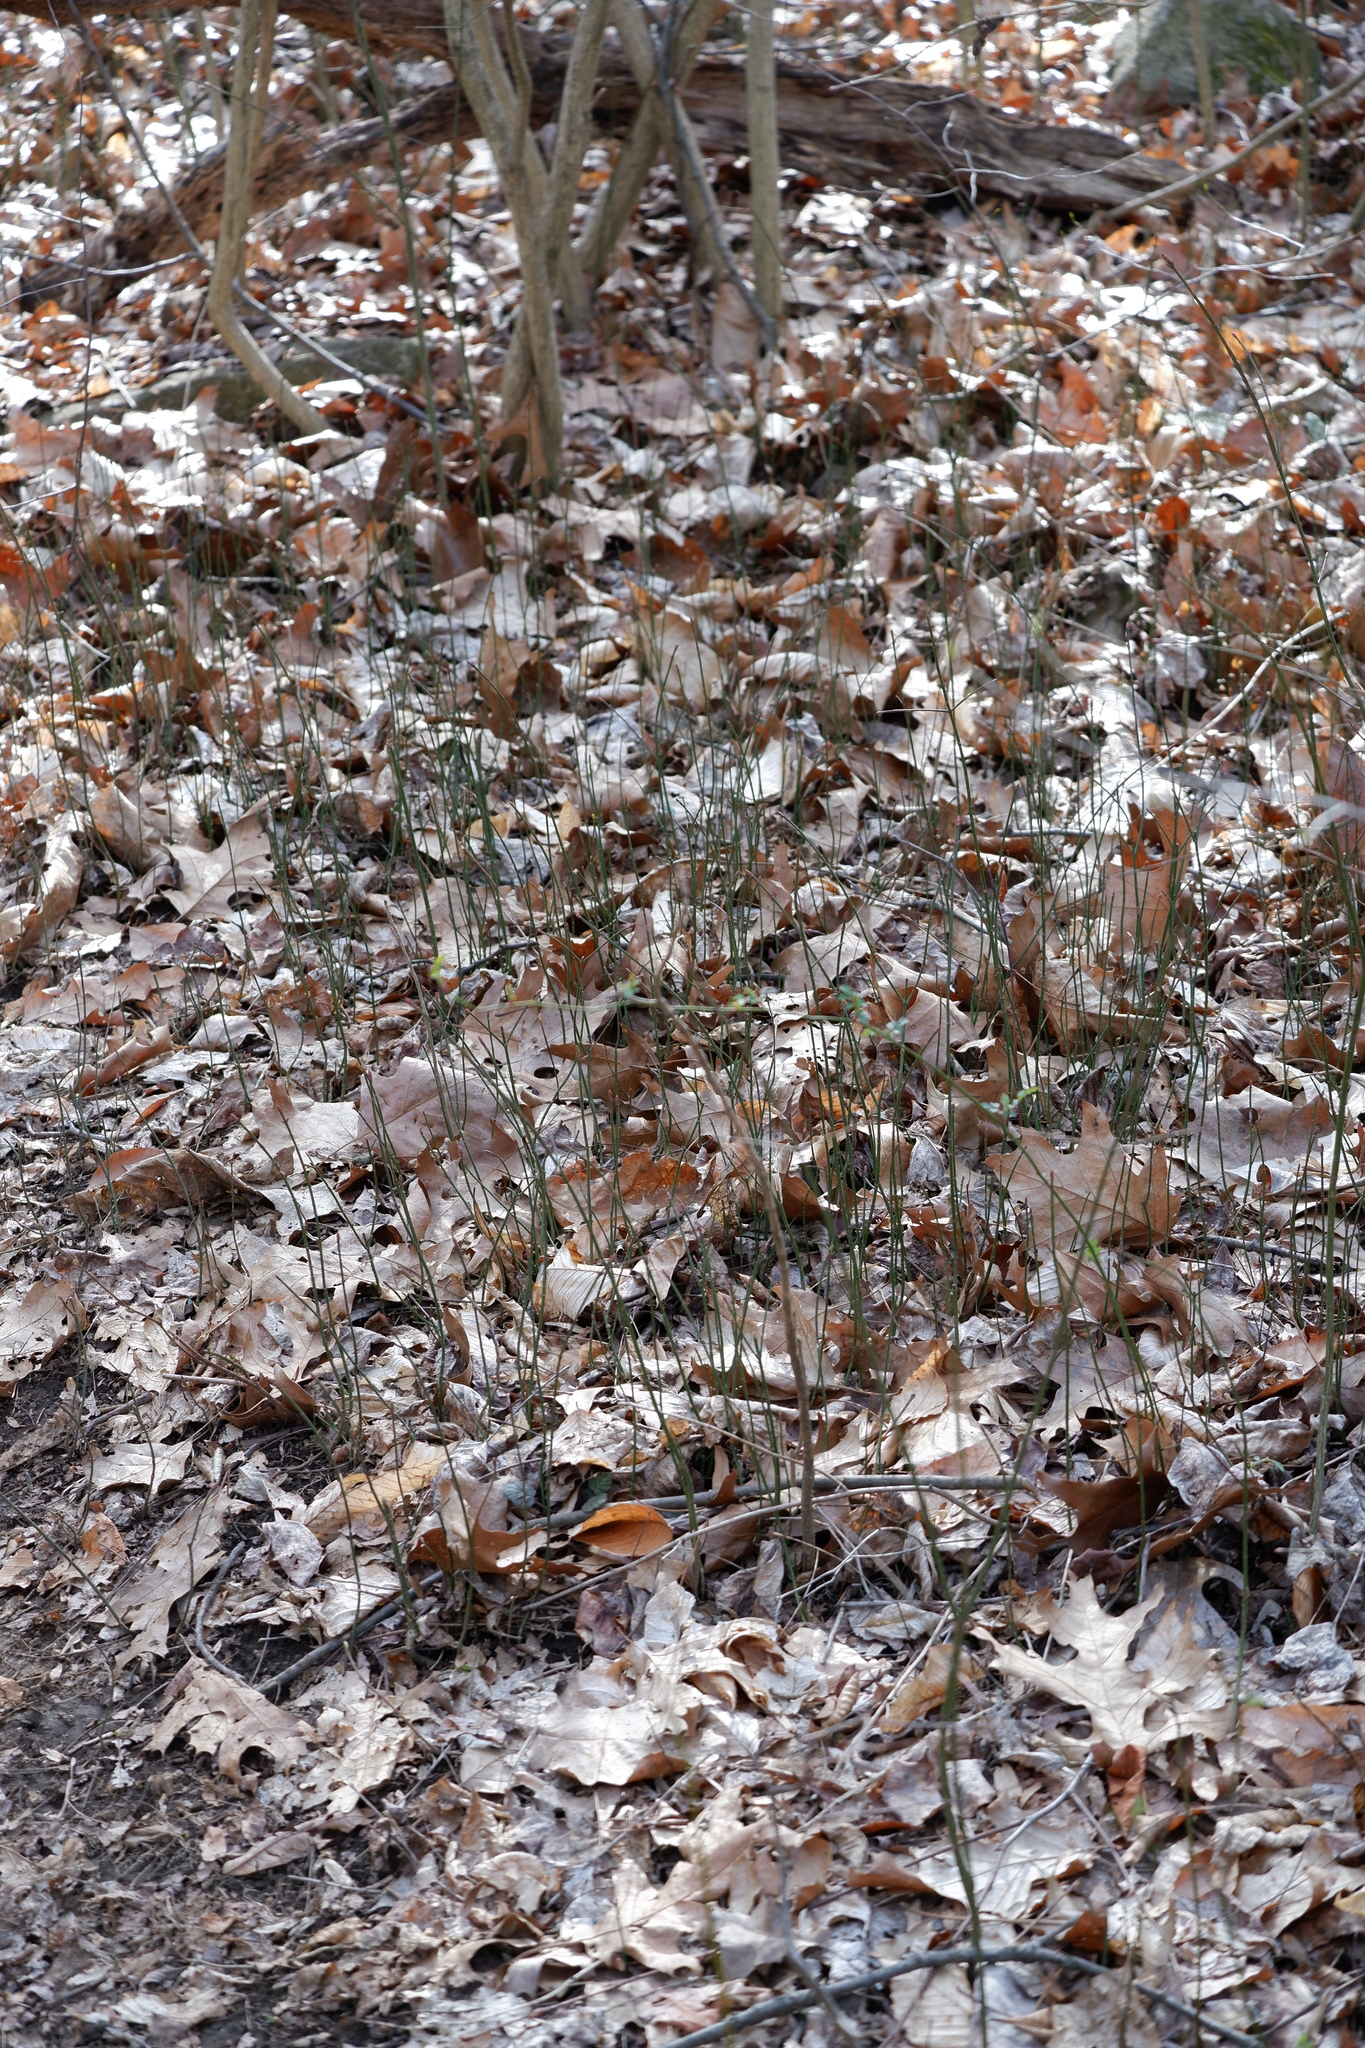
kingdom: Plantae
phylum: Tracheophyta
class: Magnoliopsida
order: Celastrales
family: Celastraceae
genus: Euonymus
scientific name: Euonymus alatus
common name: Winged euonymus
